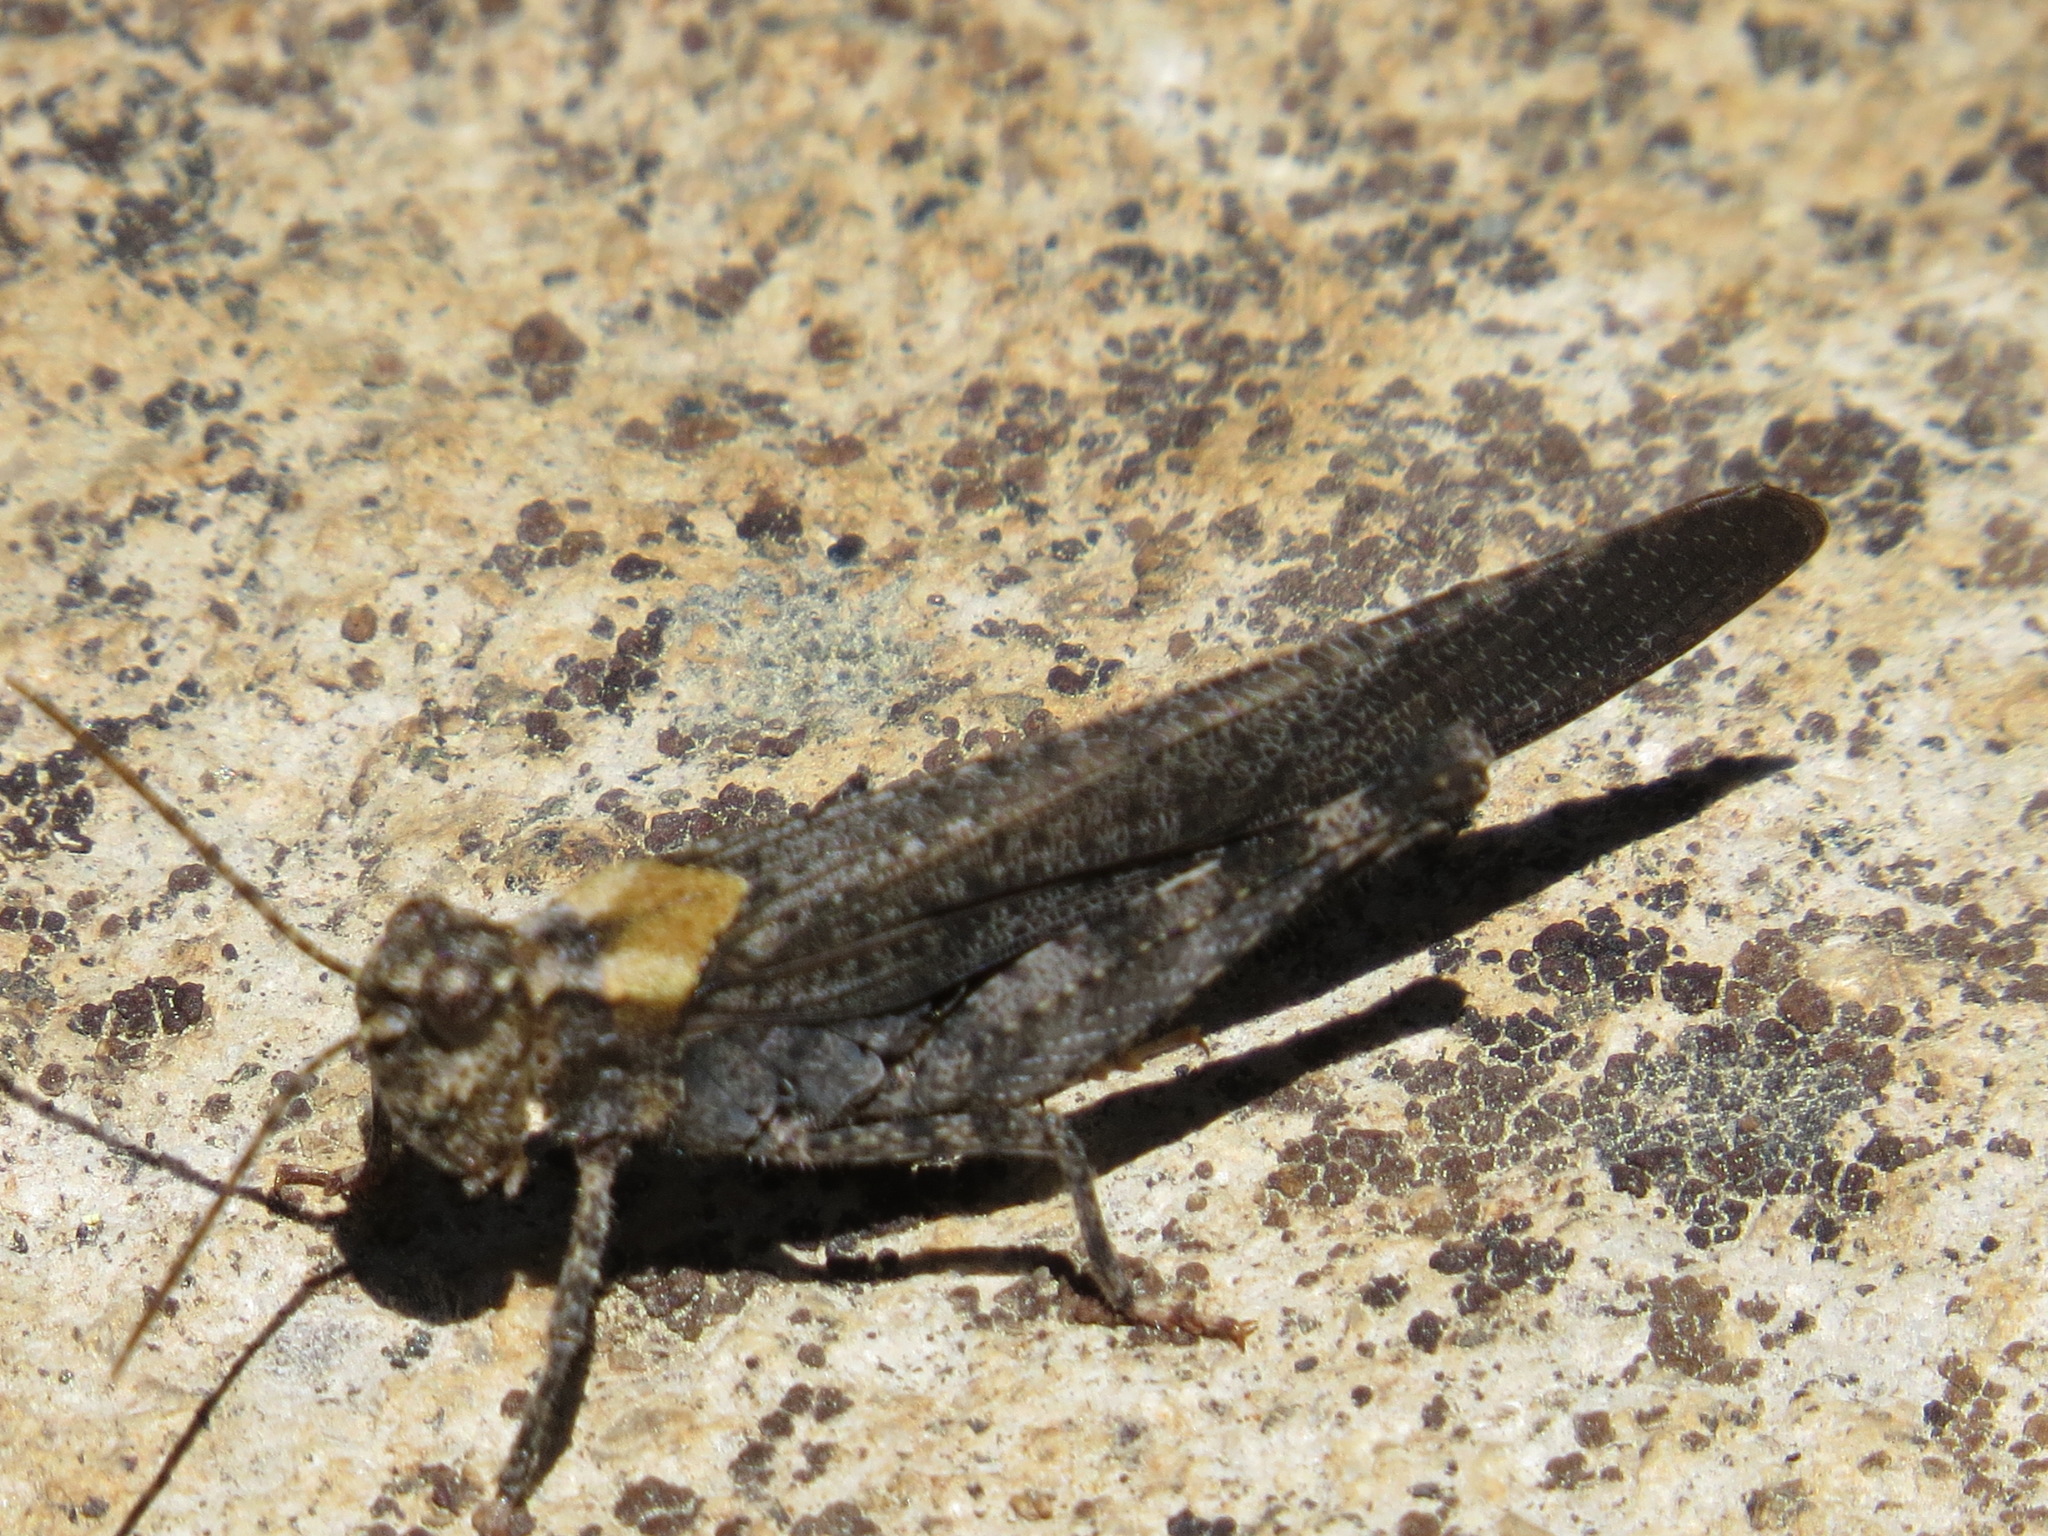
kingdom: Animalia
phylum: Arthropoda
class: Insecta
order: Orthoptera
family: Acrididae
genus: Trimerotropis
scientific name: Trimerotropis verruculata
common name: Crackling forest grasshopper
